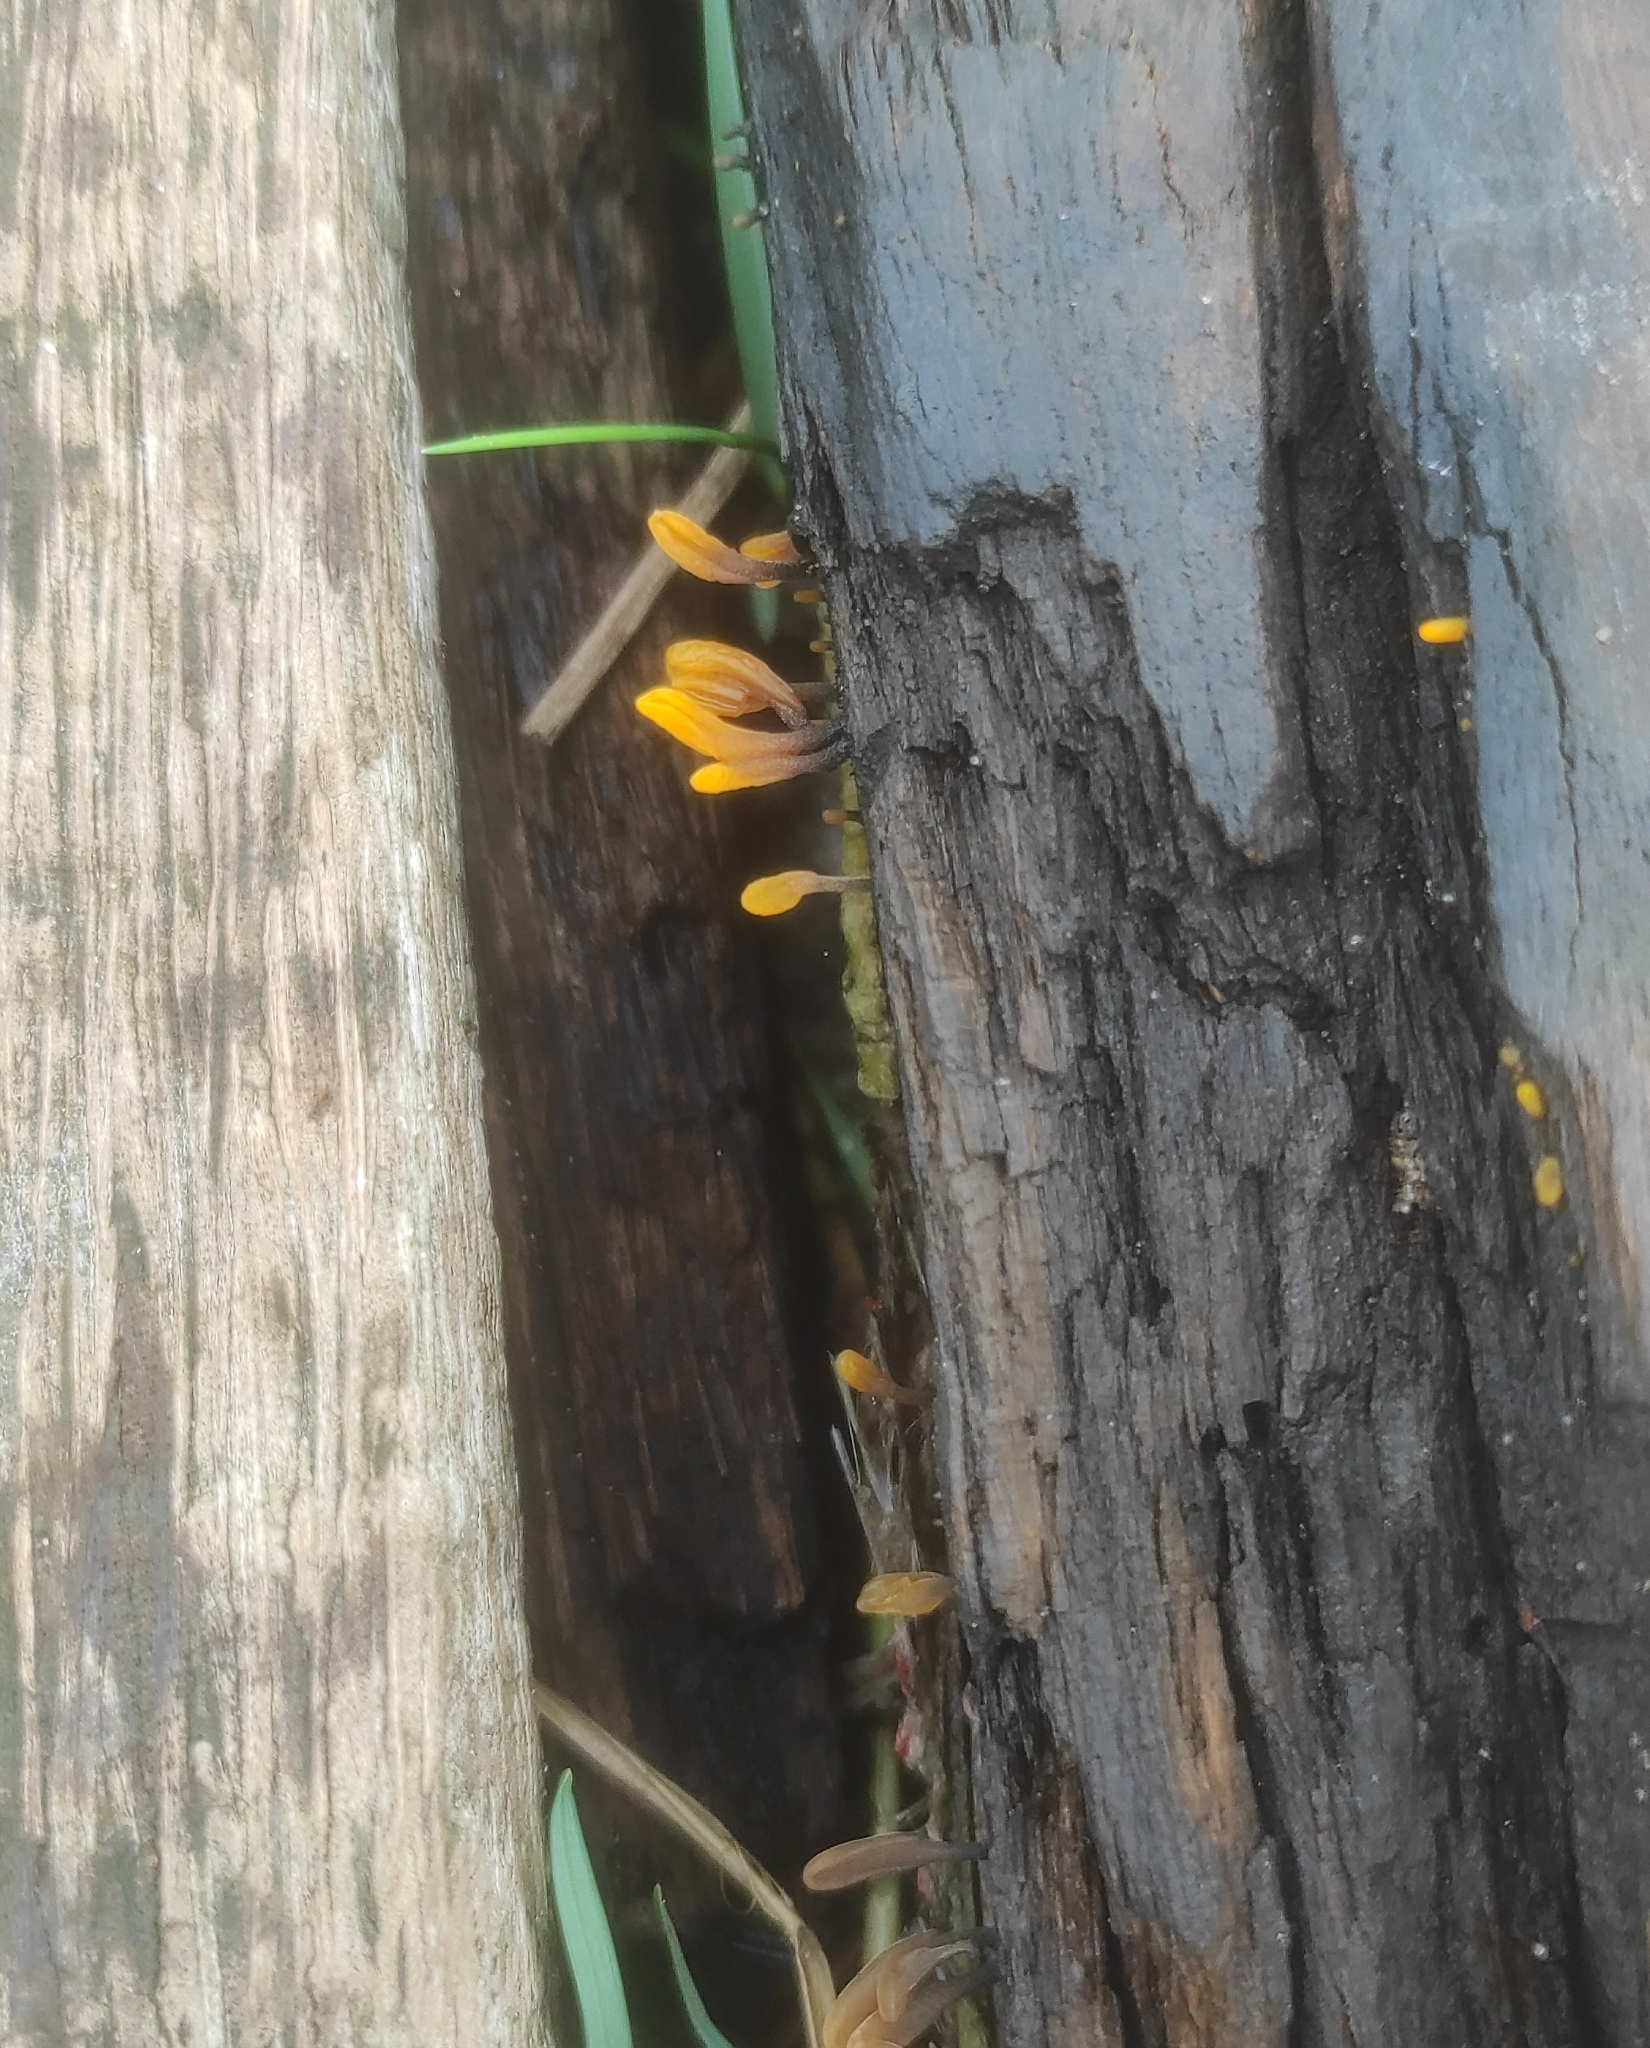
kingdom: Fungi
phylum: Basidiomycota
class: Dacrymycetes
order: Dacrymycetales
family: Dacrymycetaceae
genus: Dacrymyces
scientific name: Dacrymyces spathularius
